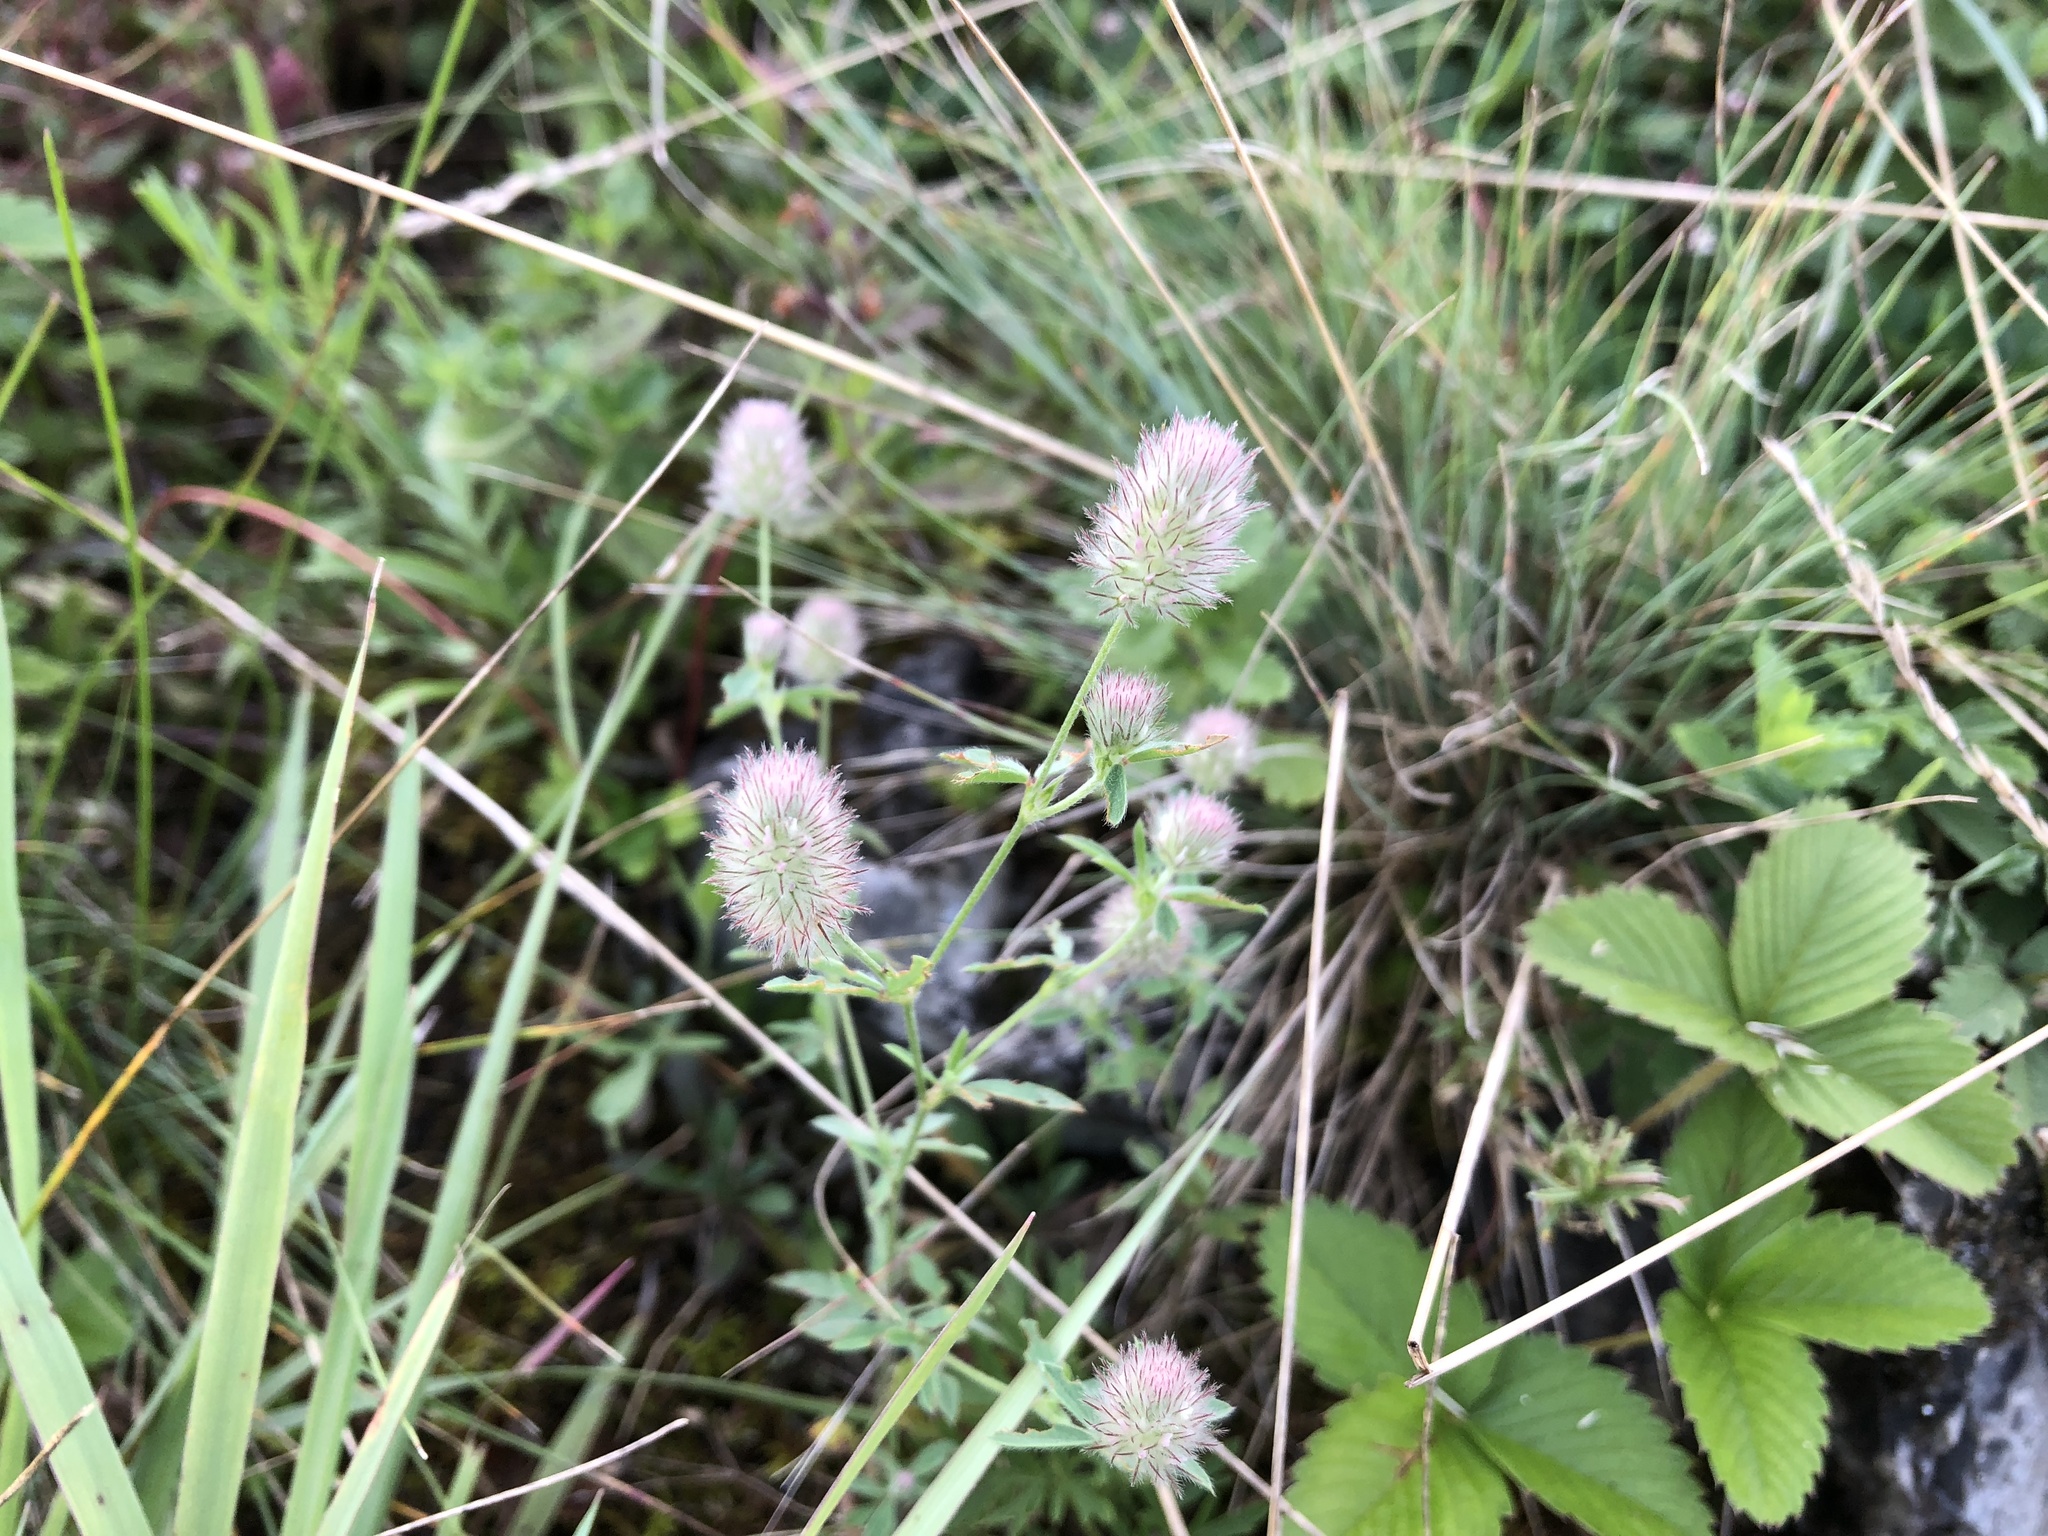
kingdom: Plantae
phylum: Tracheophyta
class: Magnoliopsida
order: Fabales
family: Fabaceae
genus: Trifolium
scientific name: Trifolium arvense
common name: Hare's-foot clover
